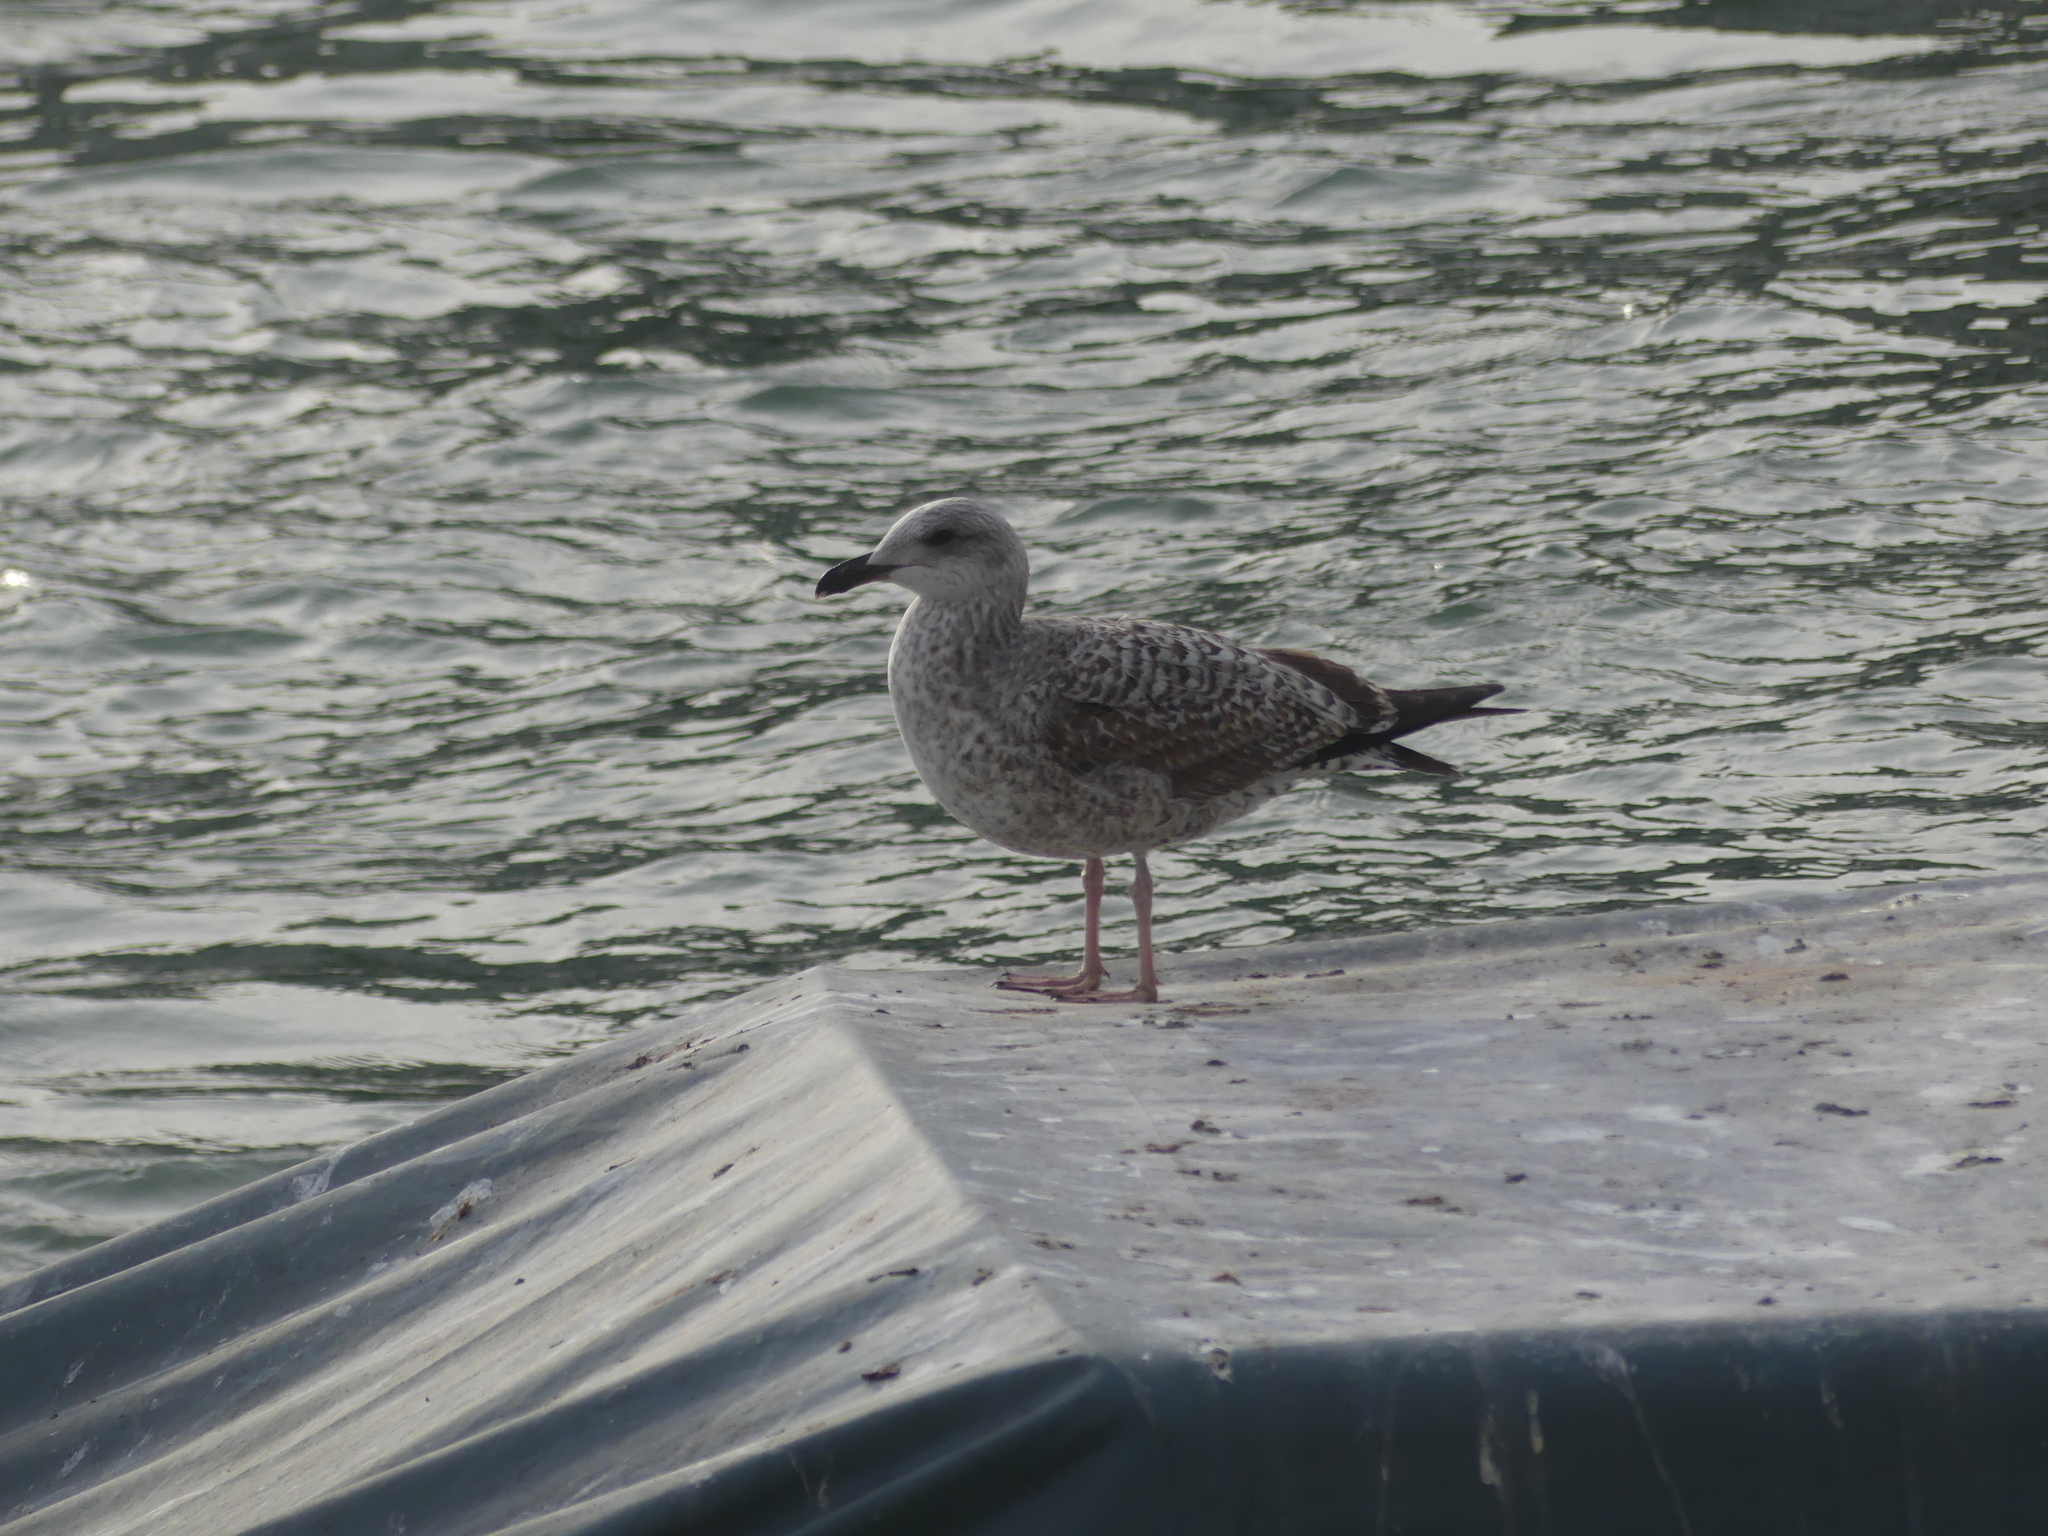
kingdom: Animalia
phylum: Chordata
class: Aves
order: Charadriiformes
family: Laridae
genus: Larus
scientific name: Larus michahellis
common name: Yellow-legged gull
